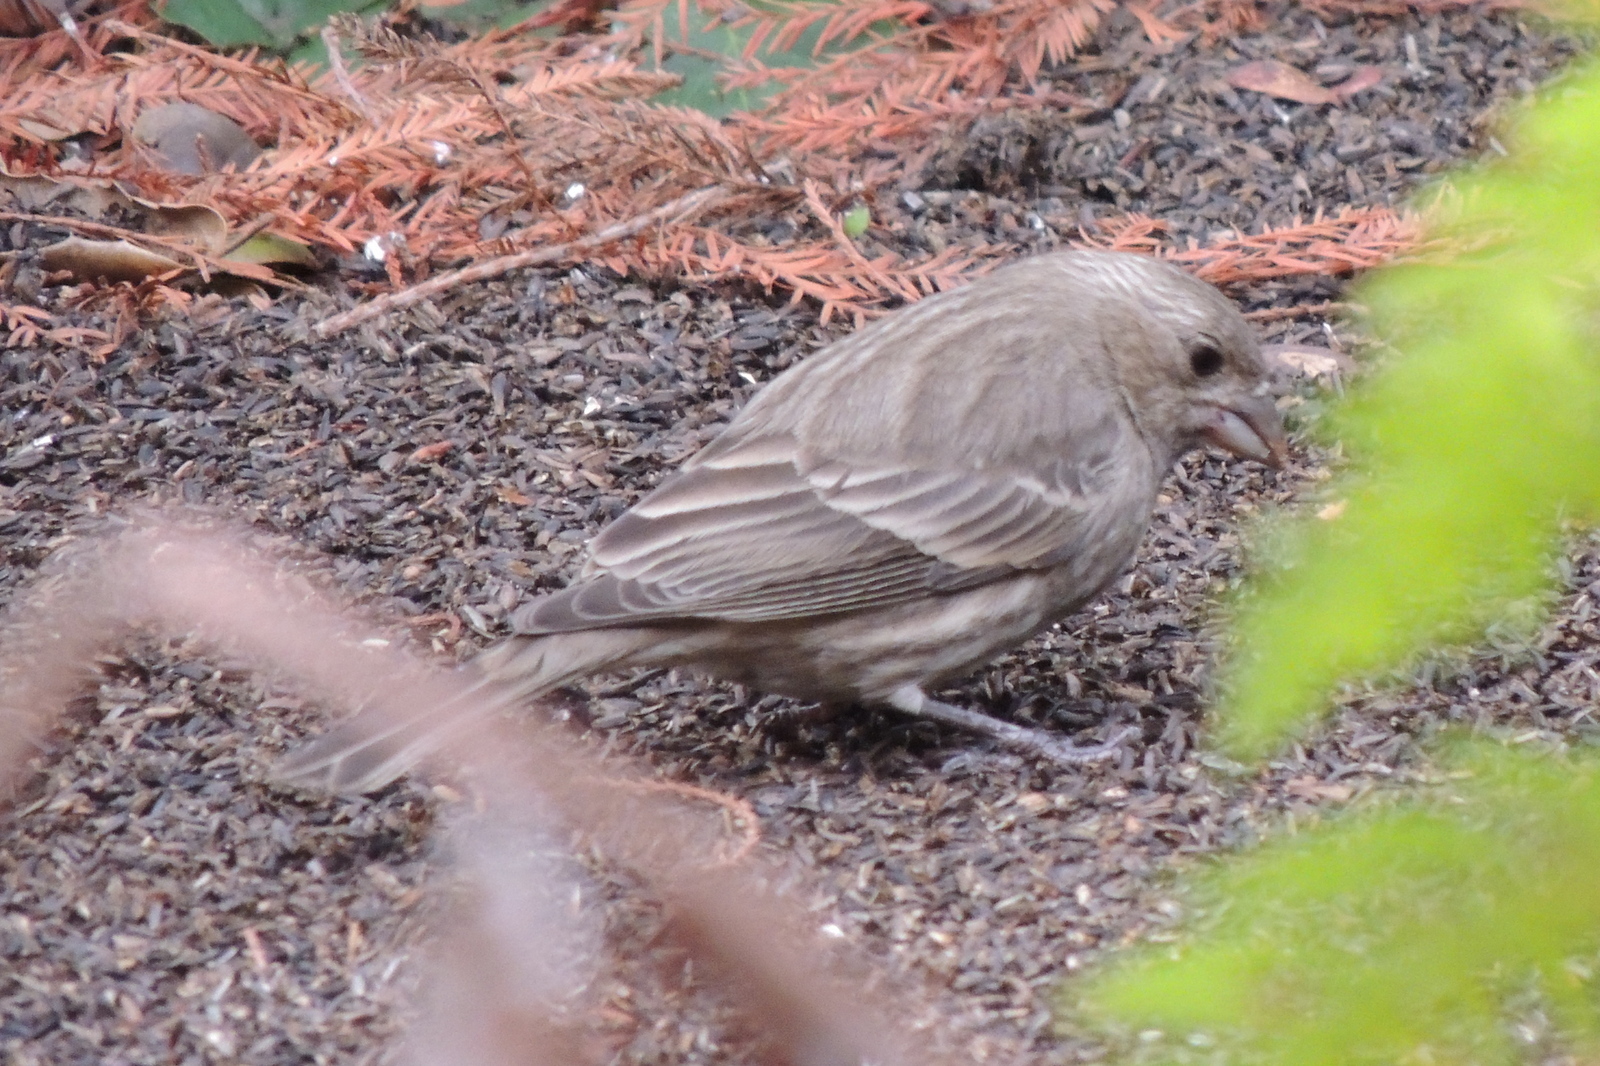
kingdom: Animalia
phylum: Chordata
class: Aves
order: Passeriformes
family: Fringillidae
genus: Haemorhous
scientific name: Haemorhous mexicanus
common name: House finch
